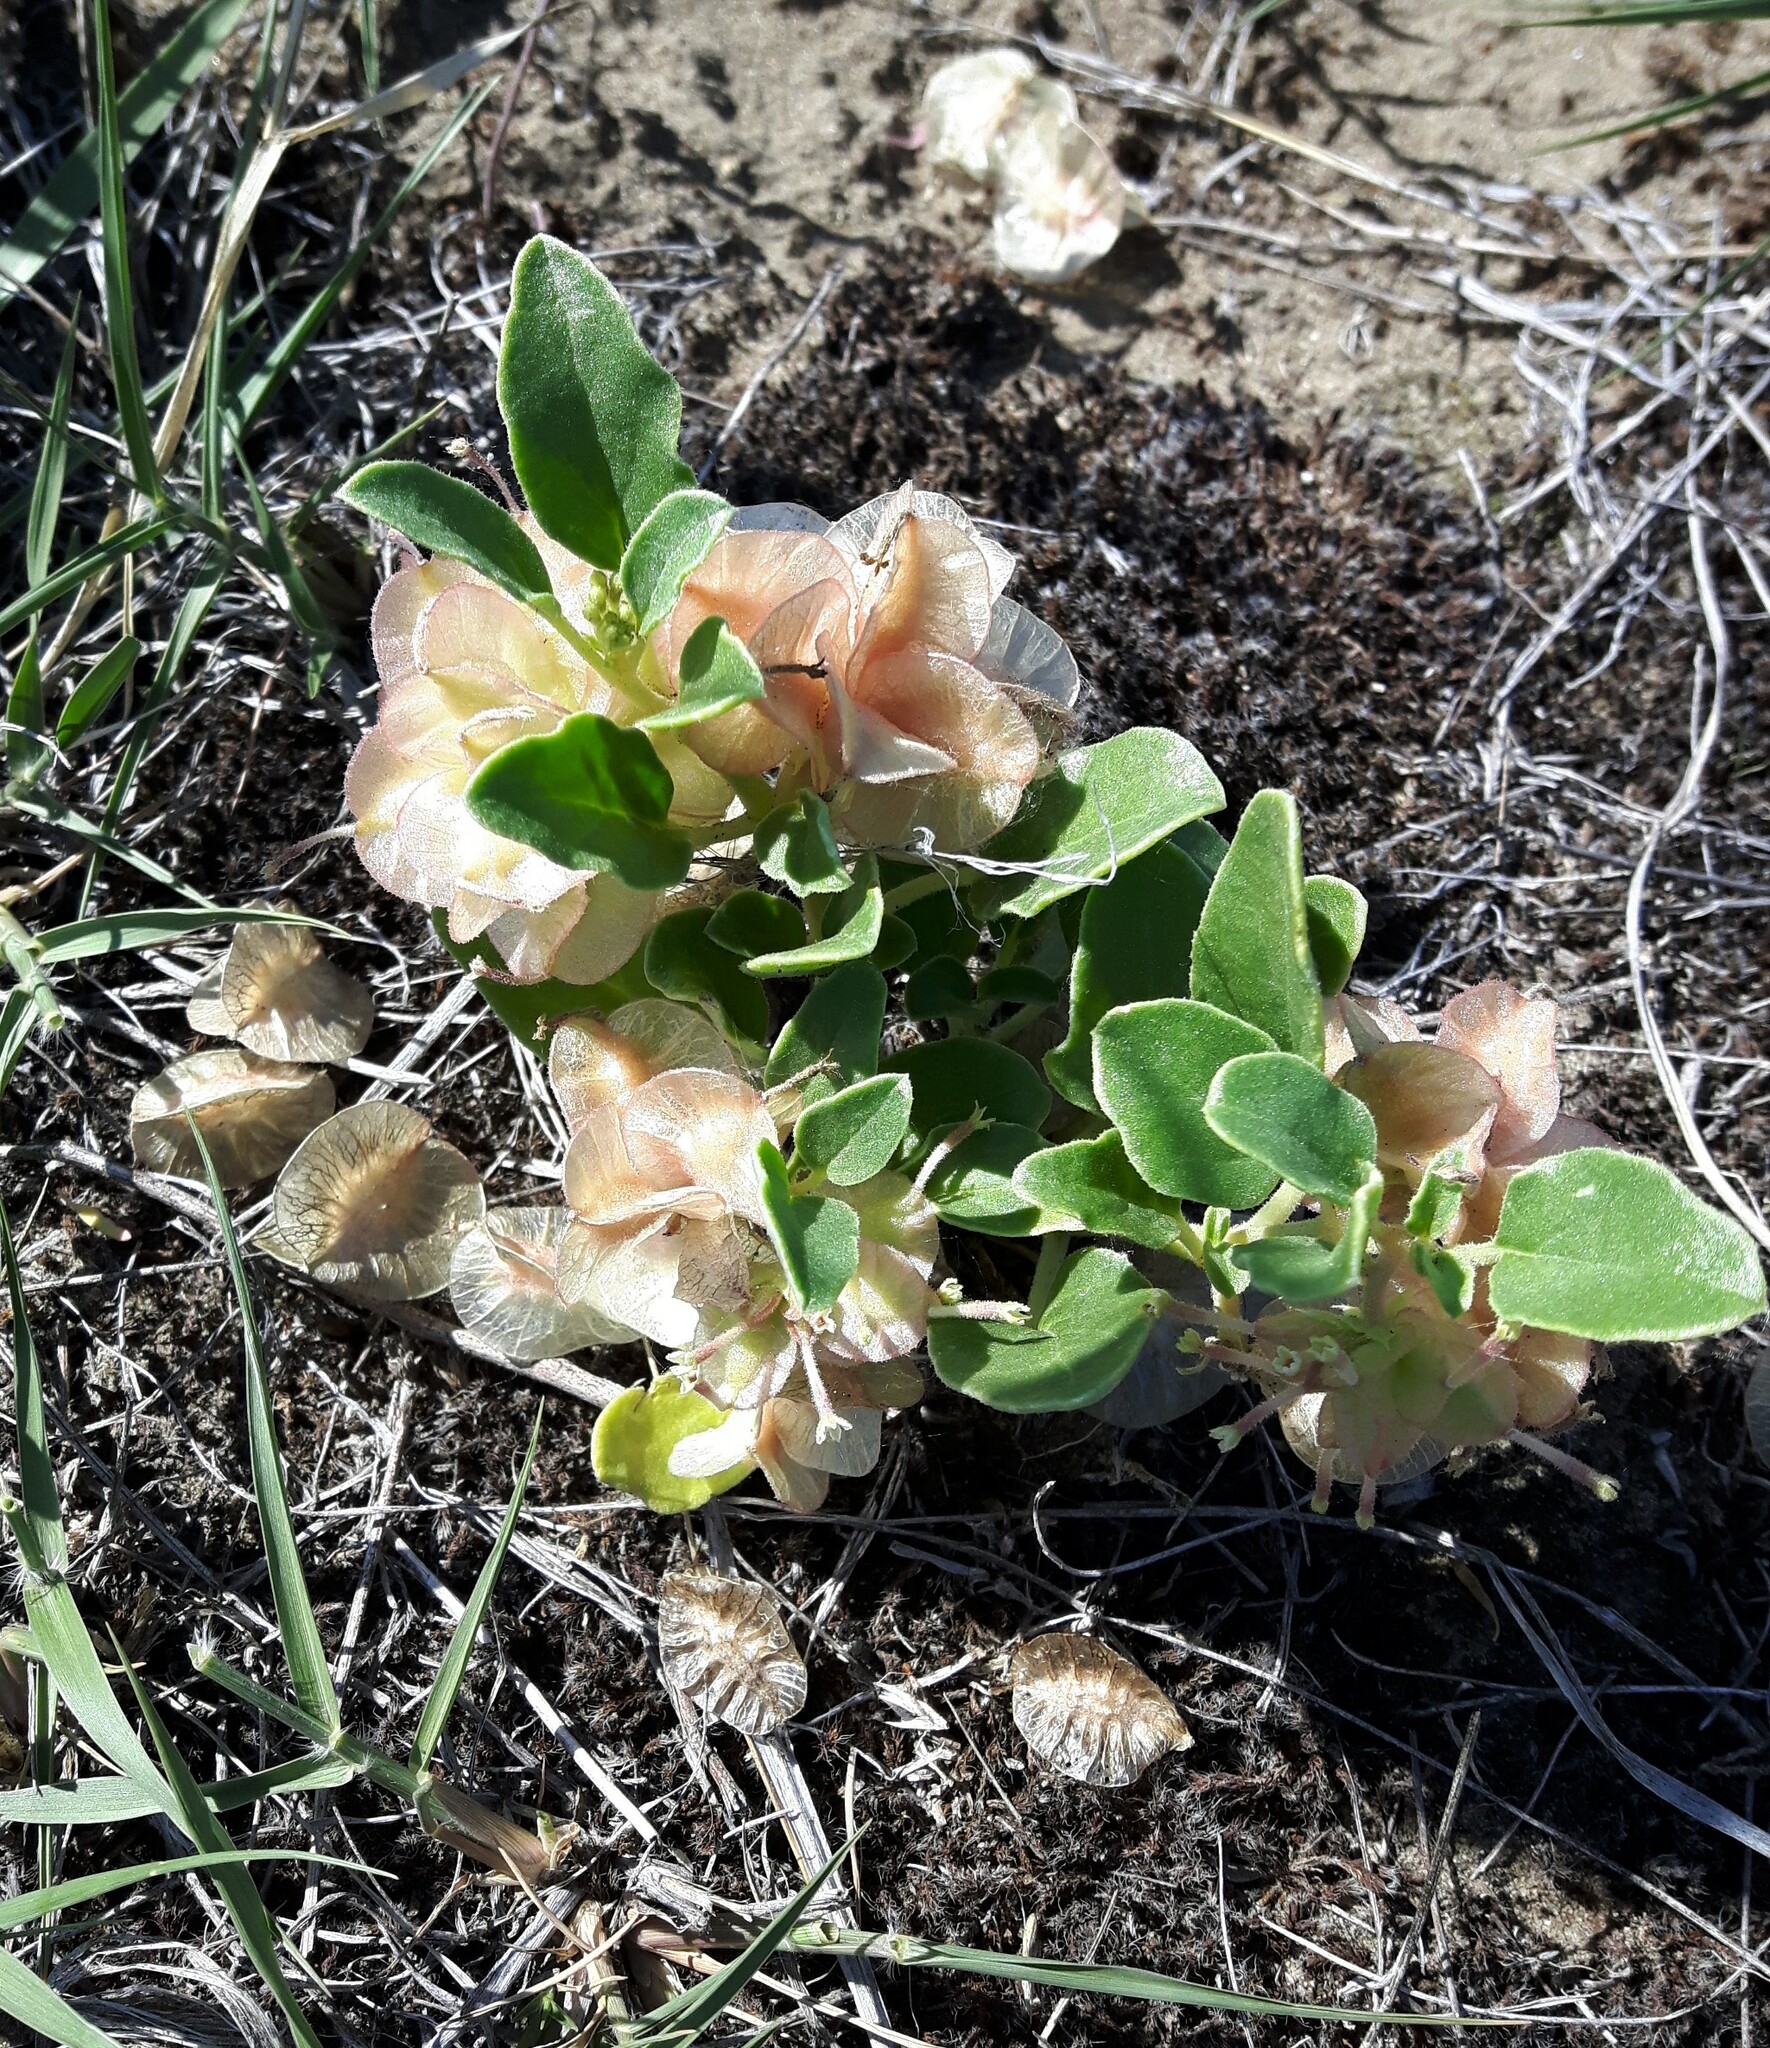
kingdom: Plantae
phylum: Tracheophyta
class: Magnoliopsida
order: Caryophyllales
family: Nyctaginaceae
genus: Tripterocalyx
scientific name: Tripterocalyx micranthus
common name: Small-flowered sand-verbena
